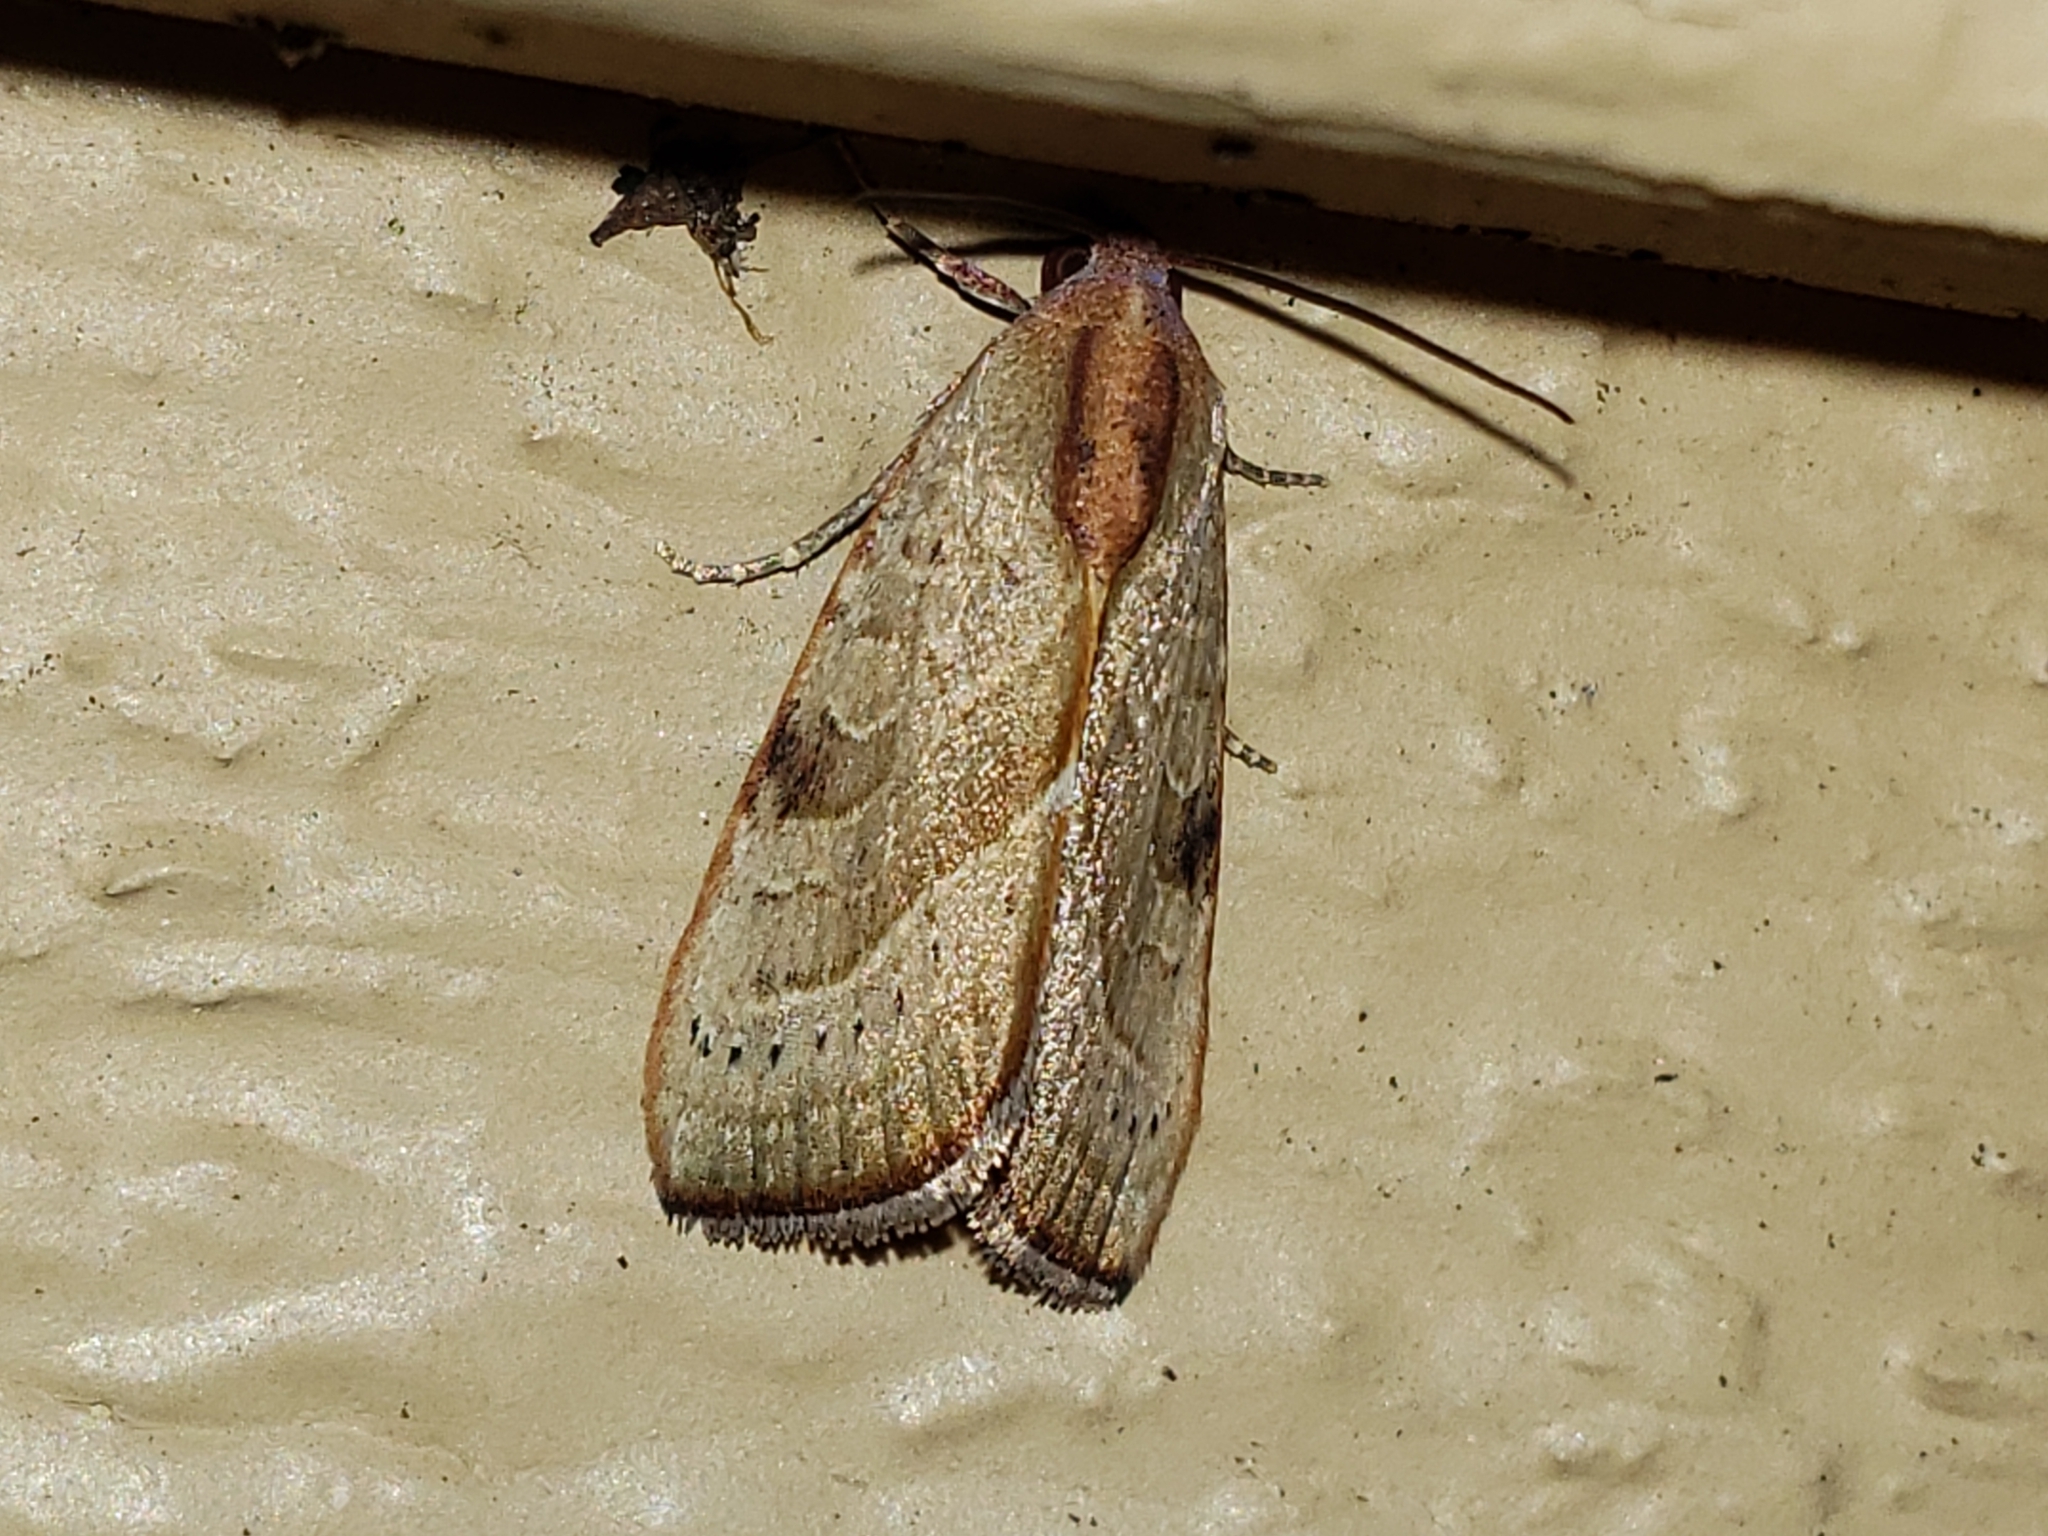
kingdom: Animalia
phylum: Arthropoda
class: Insecta
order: Lepidoptera
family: Noctuidae
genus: Galgula
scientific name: Galgula partita
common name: Wedgeling
